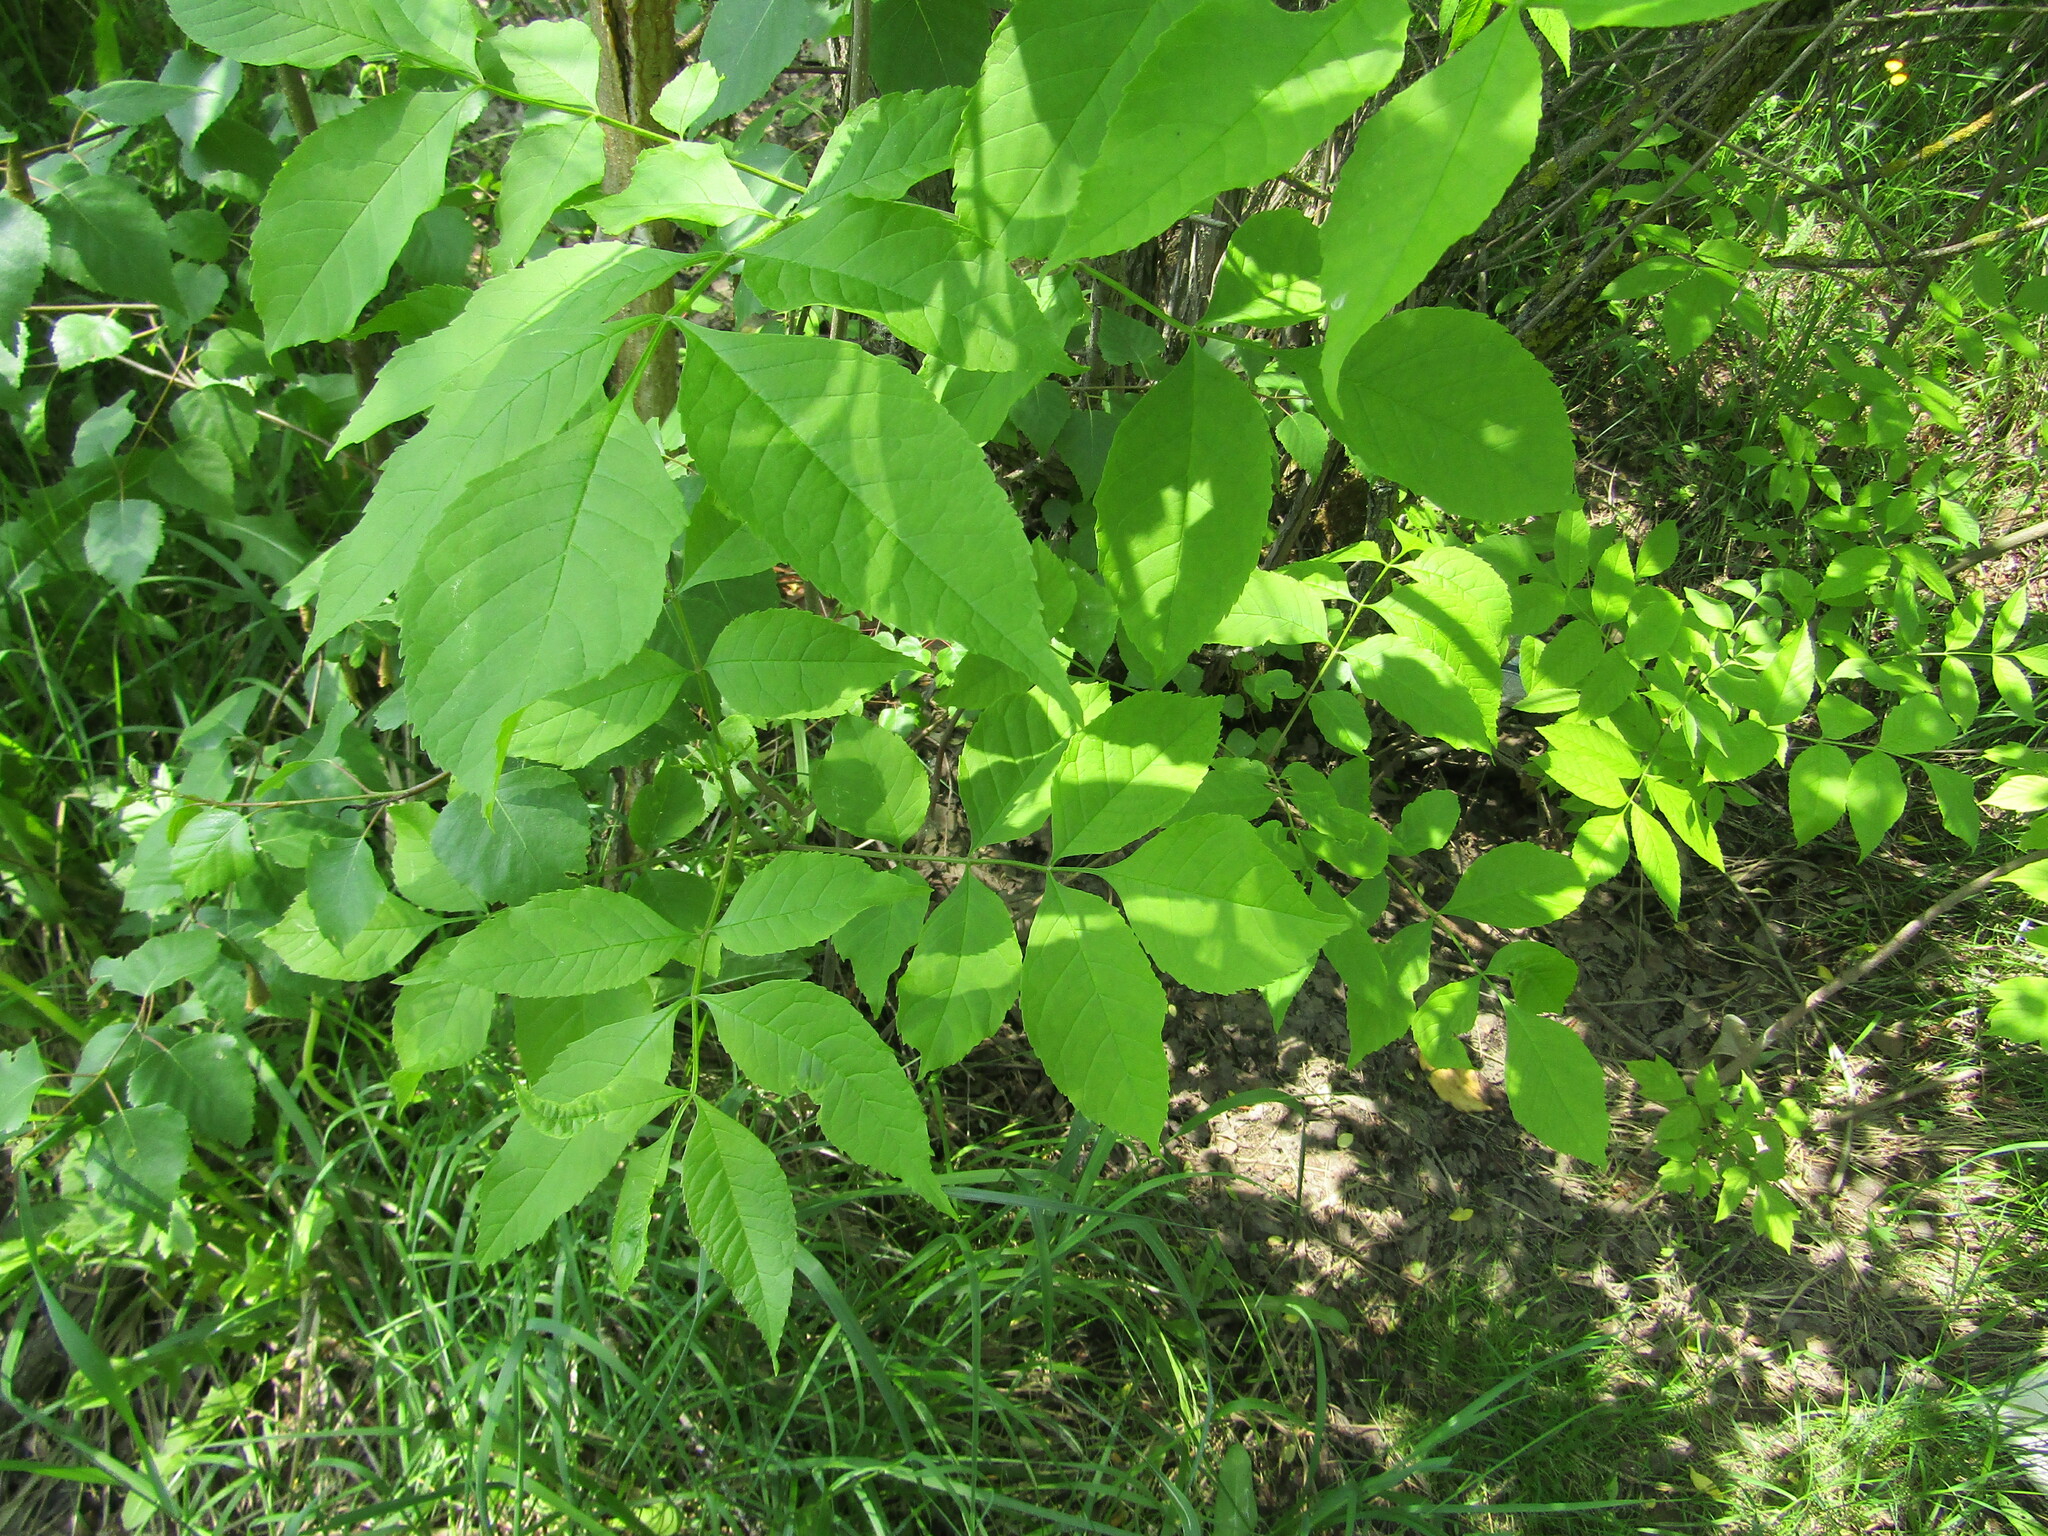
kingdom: Plantae
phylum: Tracheophyta
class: Magnoliopsida
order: Lamiales
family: Oleaceae
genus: Fraxinus
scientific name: Fraxinus pennsylvanica
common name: Green ash
